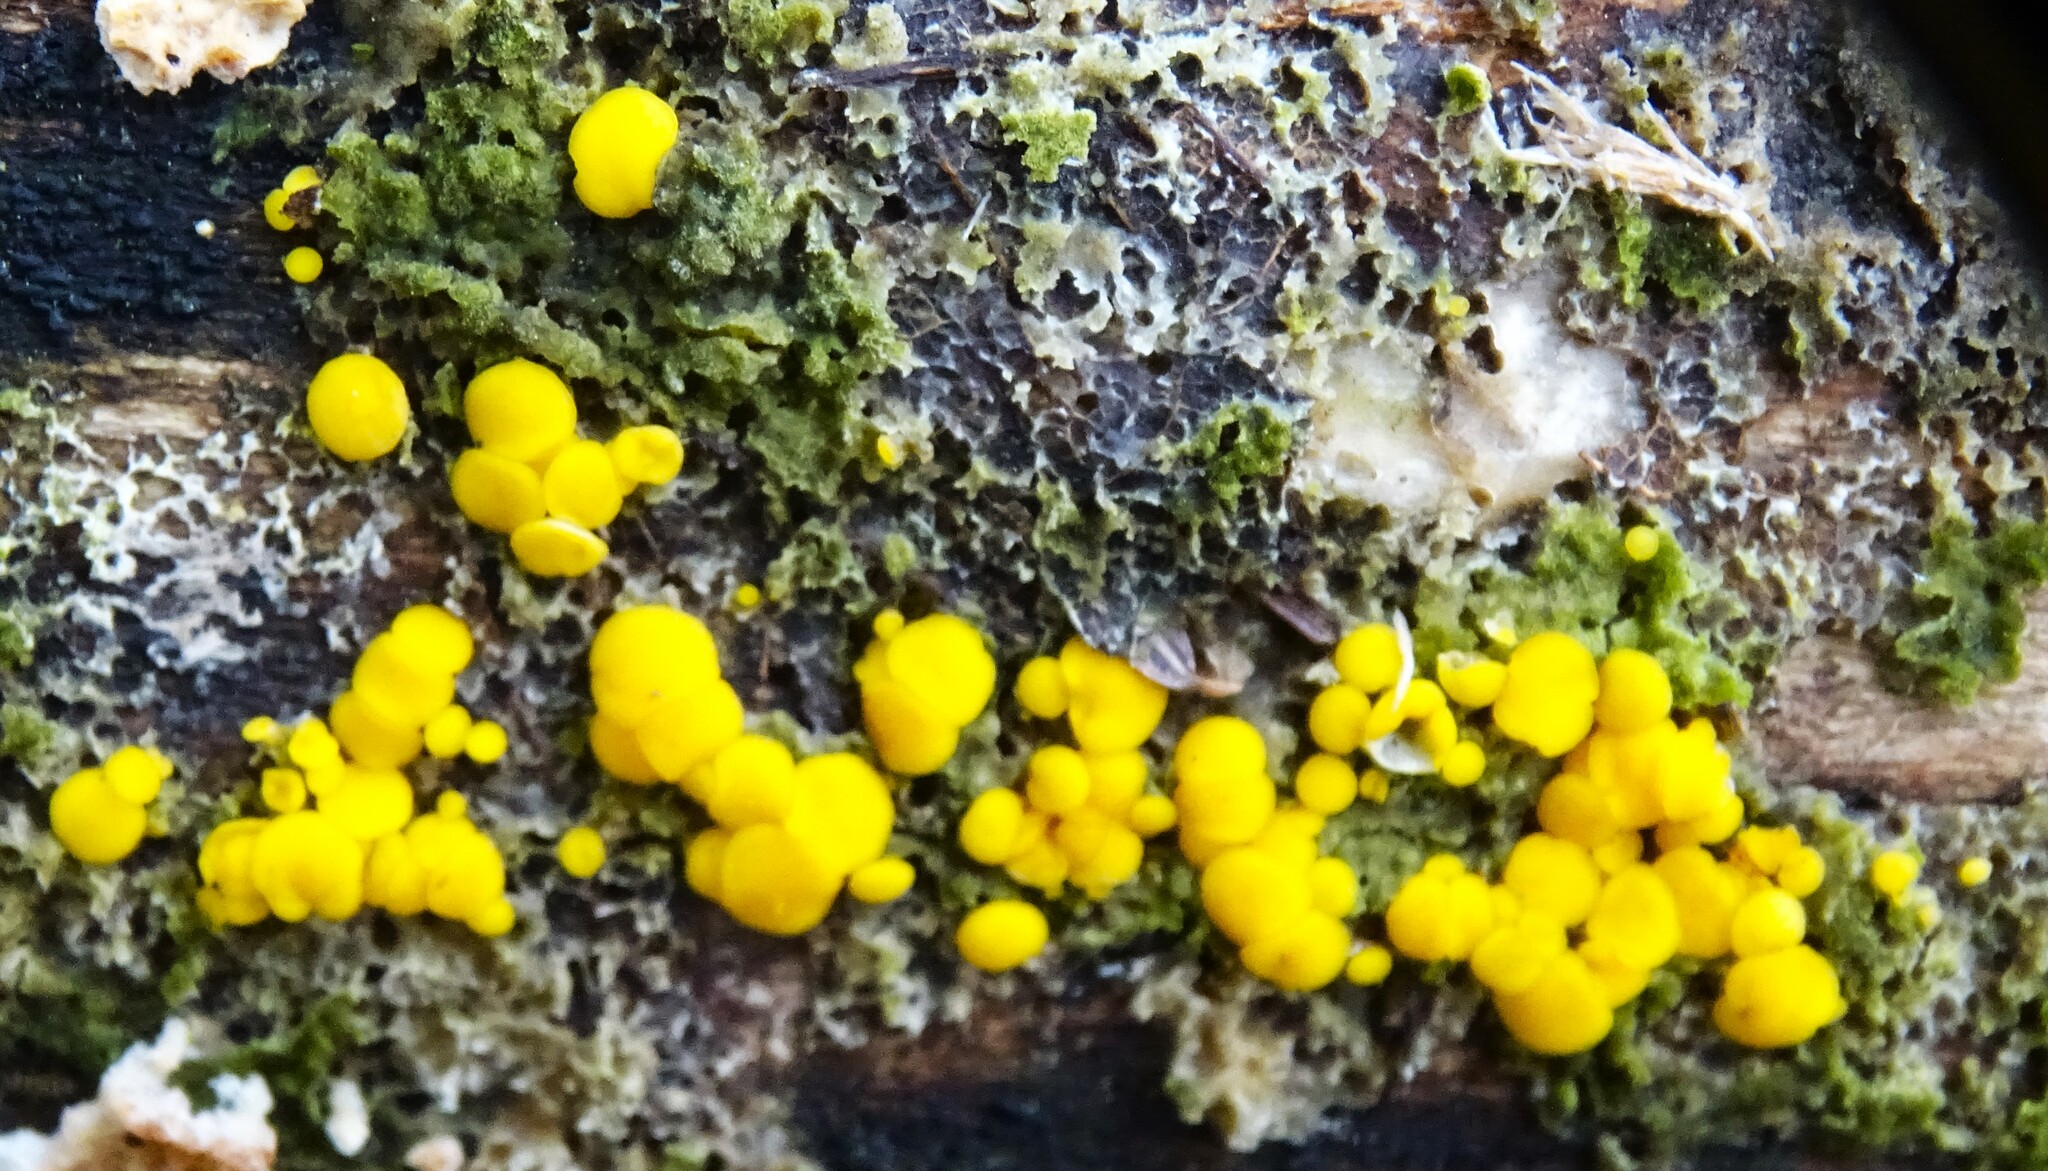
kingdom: Fungi
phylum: Ascomycota
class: Leotiomycetes
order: Helotiales
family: Pezizellaceae
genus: Calycina
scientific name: Calycina citrina
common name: Yellow fairy cups
